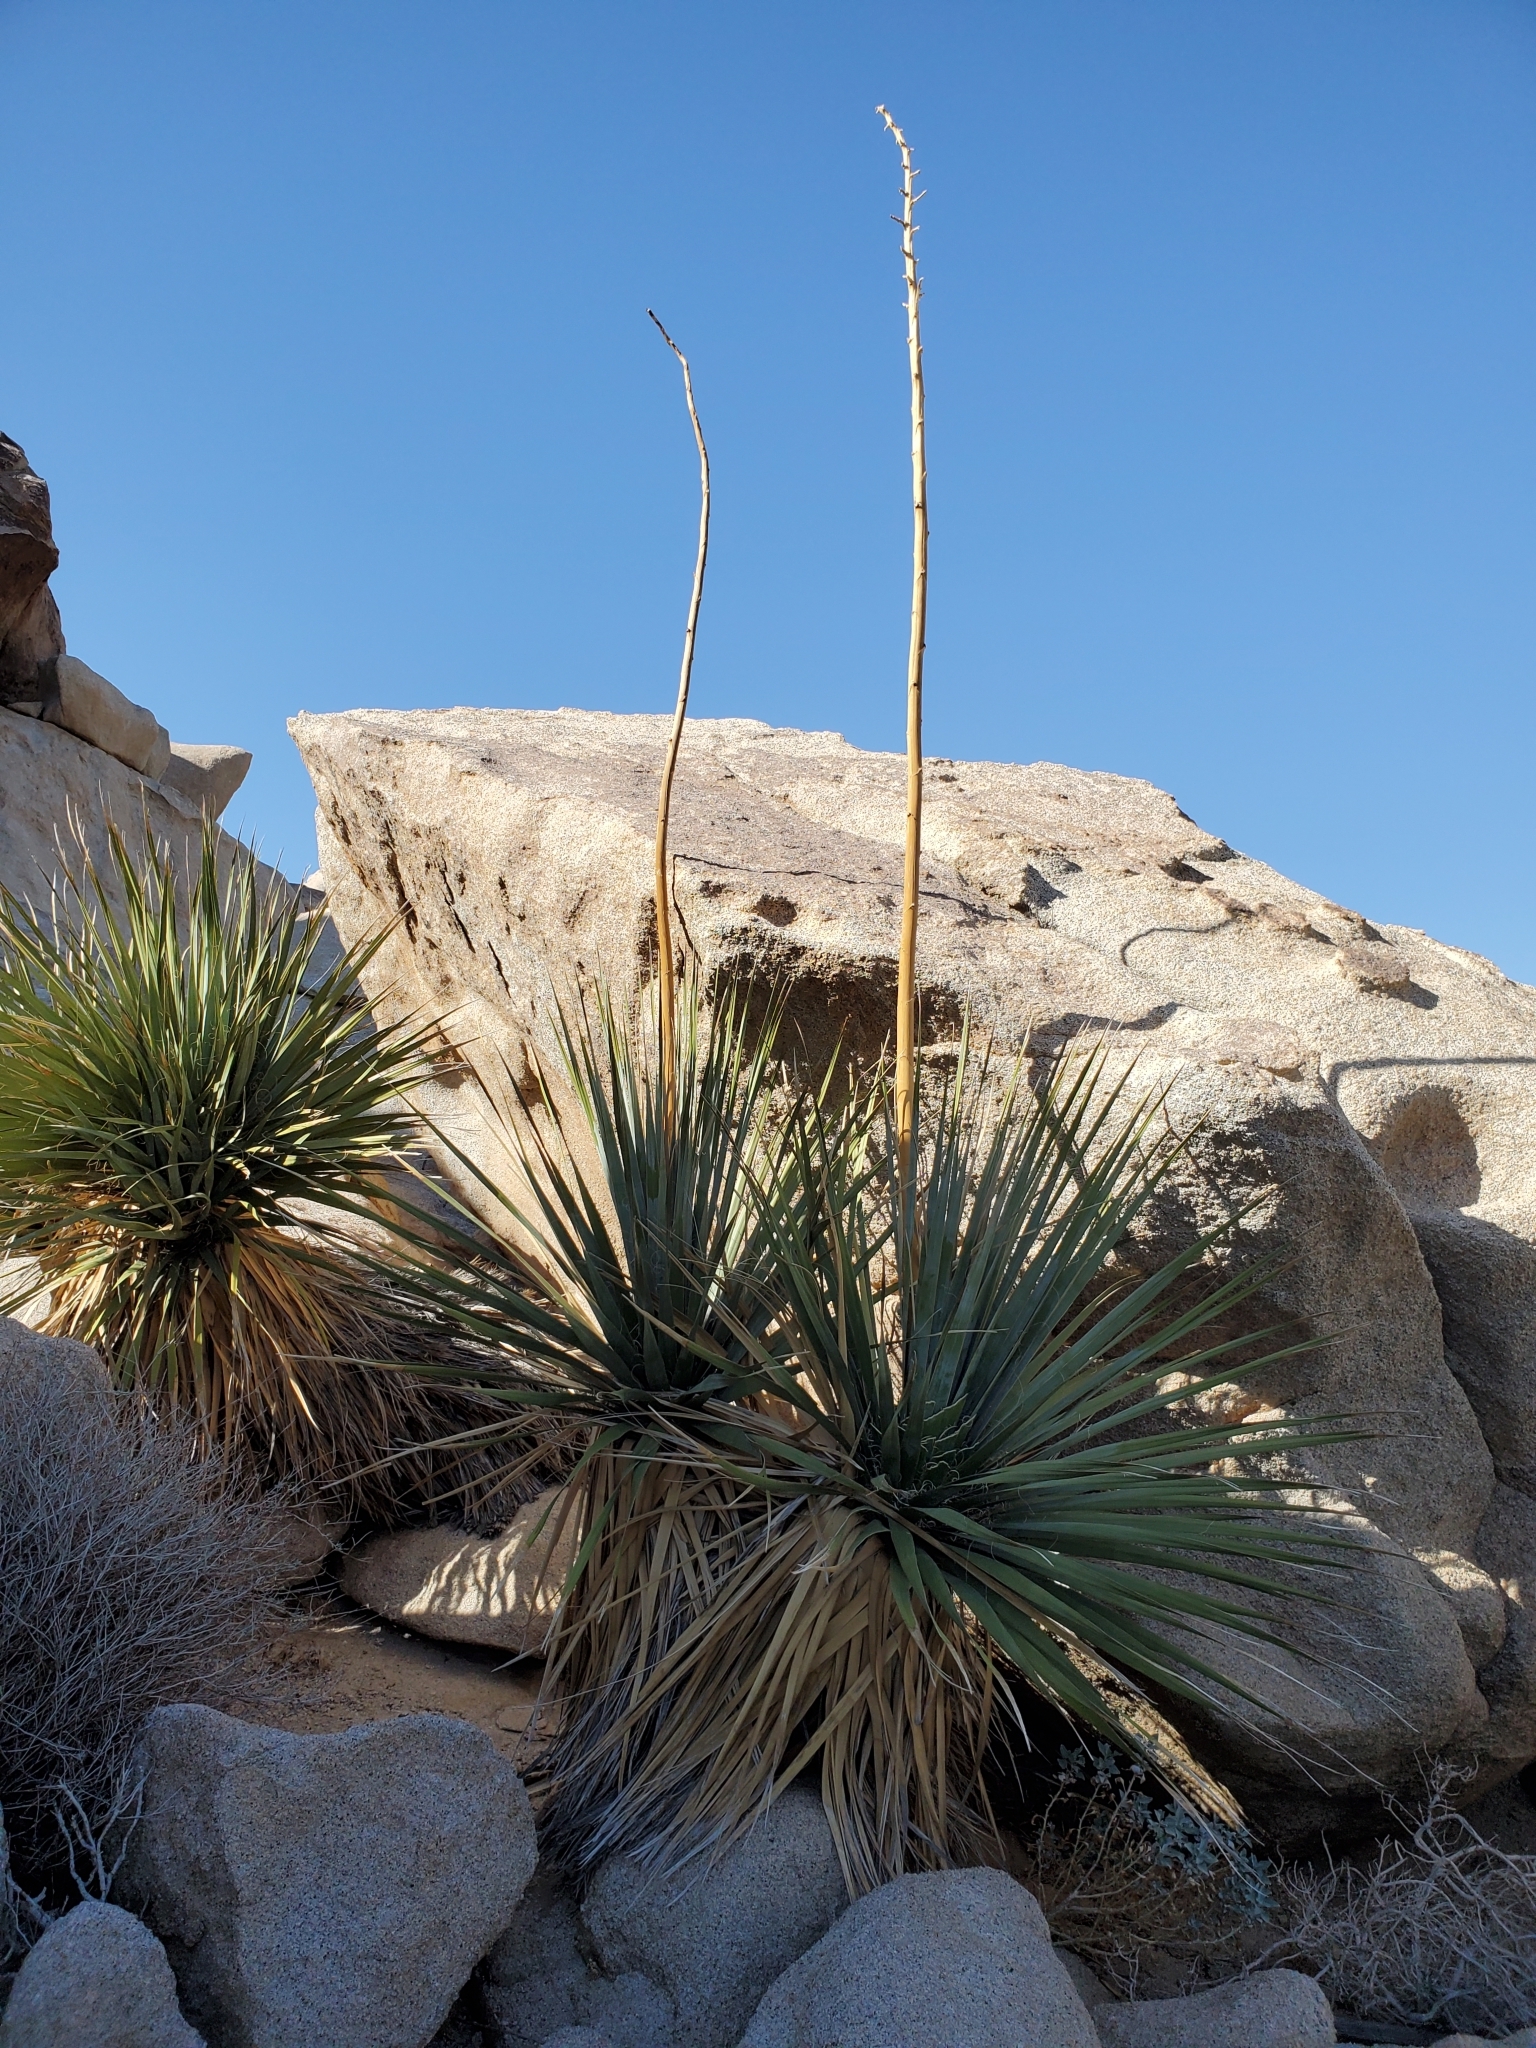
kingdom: Plantae
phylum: Tracheophyta
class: Liliopsida
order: Asparagales
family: Asparagaceae
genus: Nolina
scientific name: Nolina bigelovii
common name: Bigelow bear-grass
